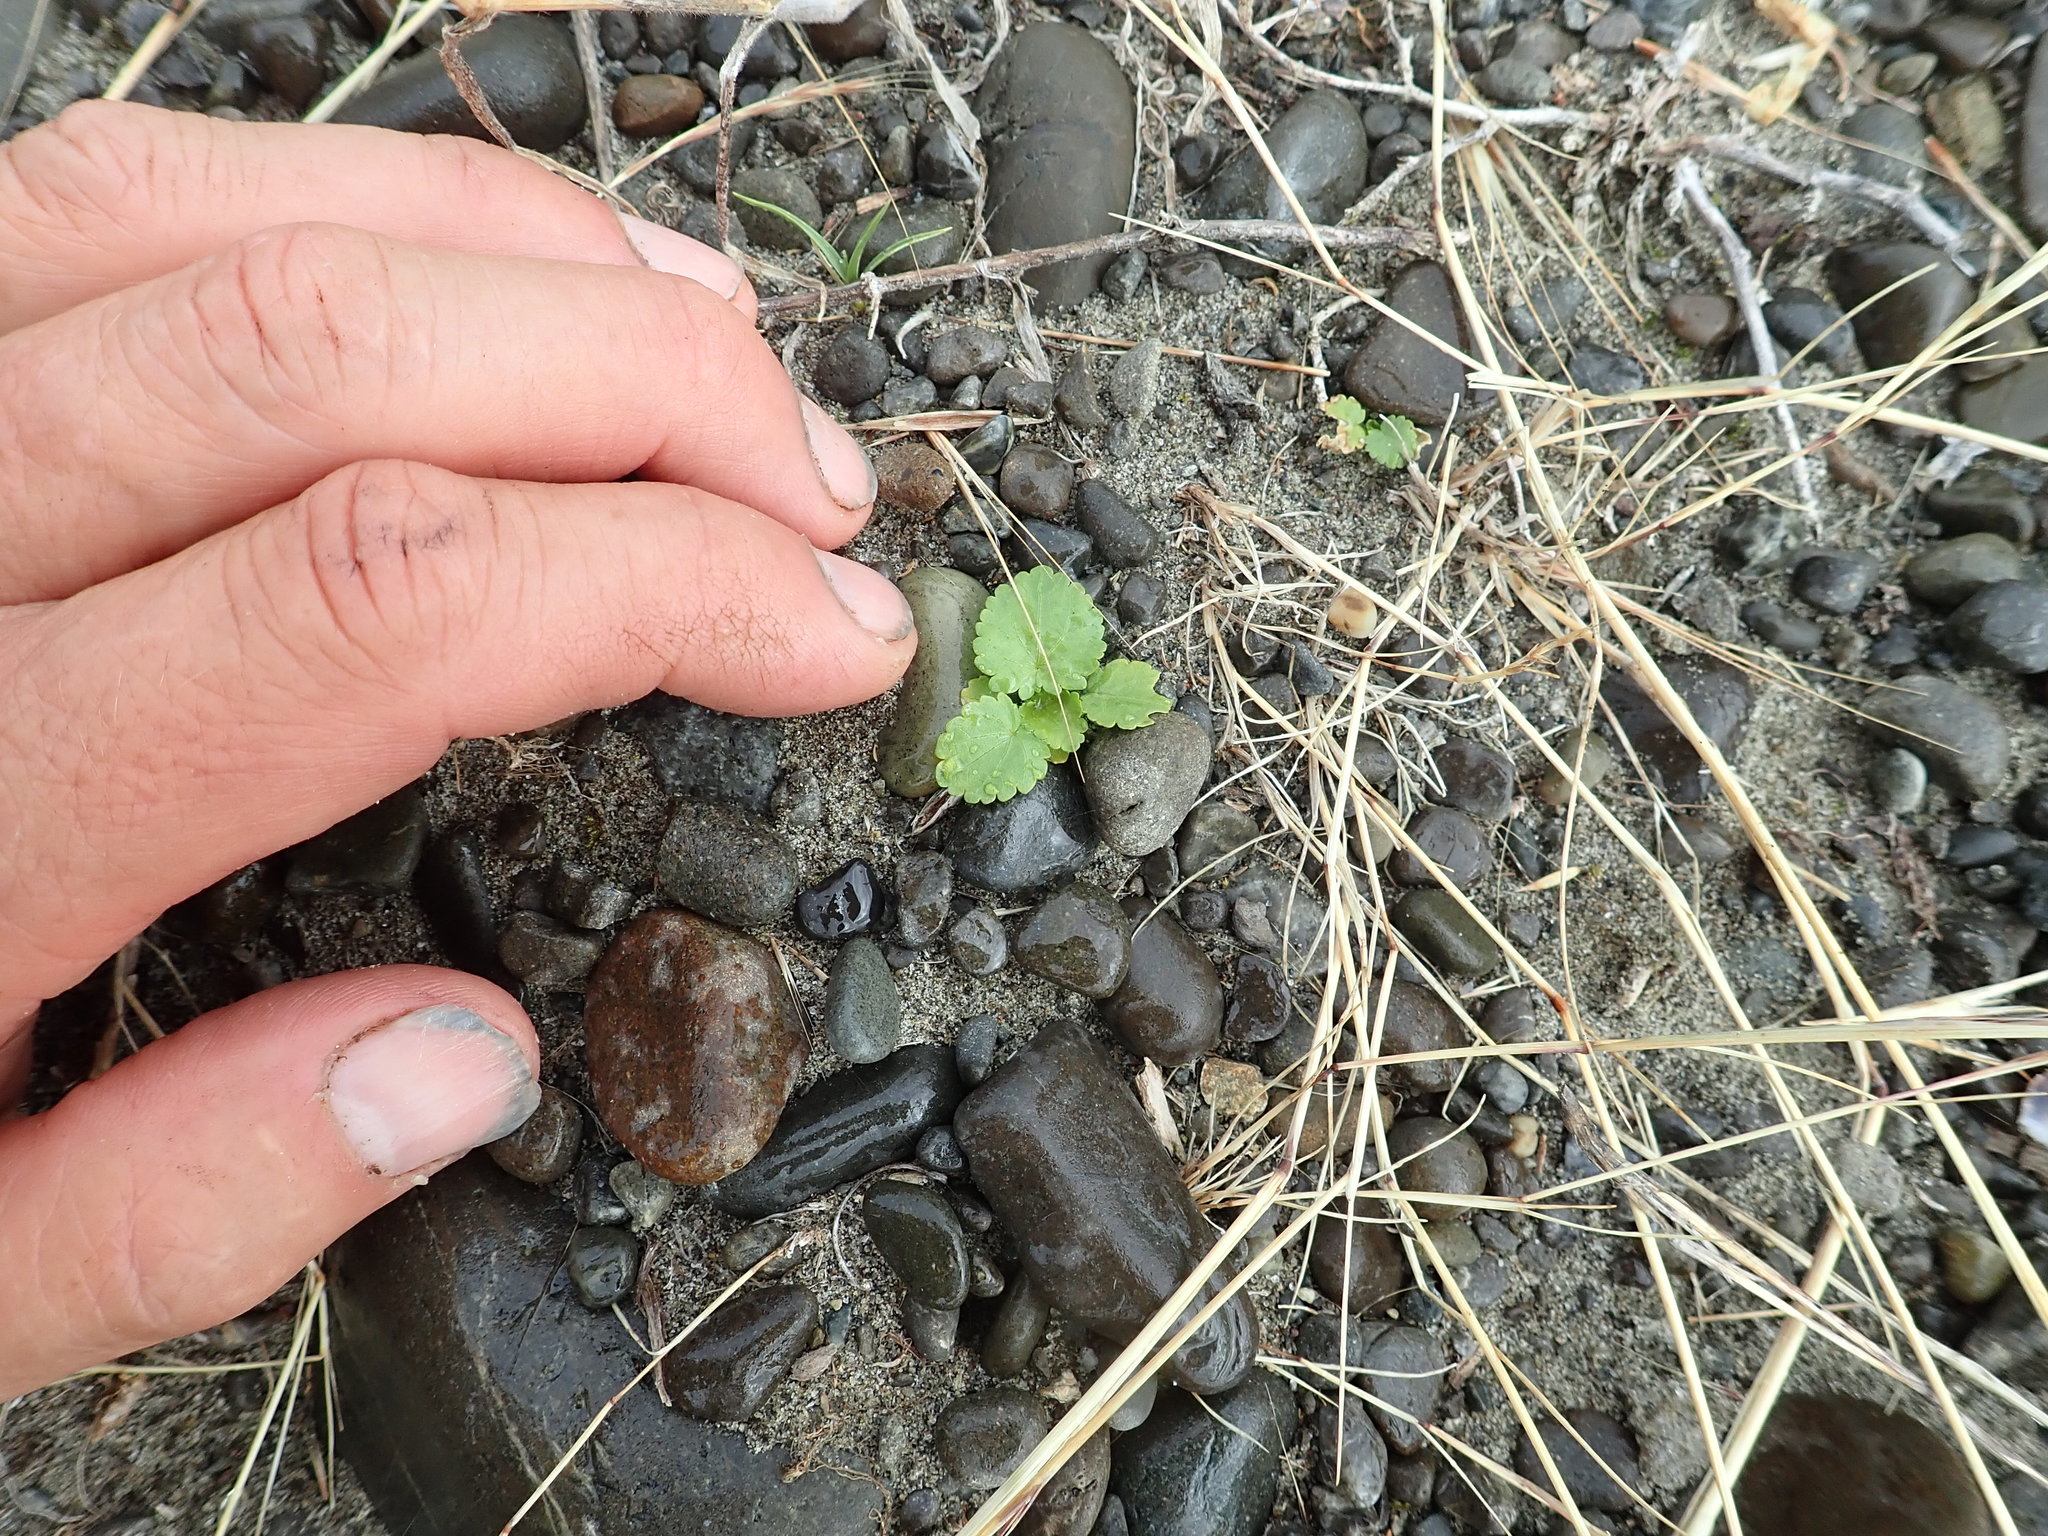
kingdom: Plantae
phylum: Tracheophyta
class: Magnoliopsida
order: Malvales
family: Malvaceae
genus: Modiola
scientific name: Modiola caroliniana
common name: Carolina bristlemallow
